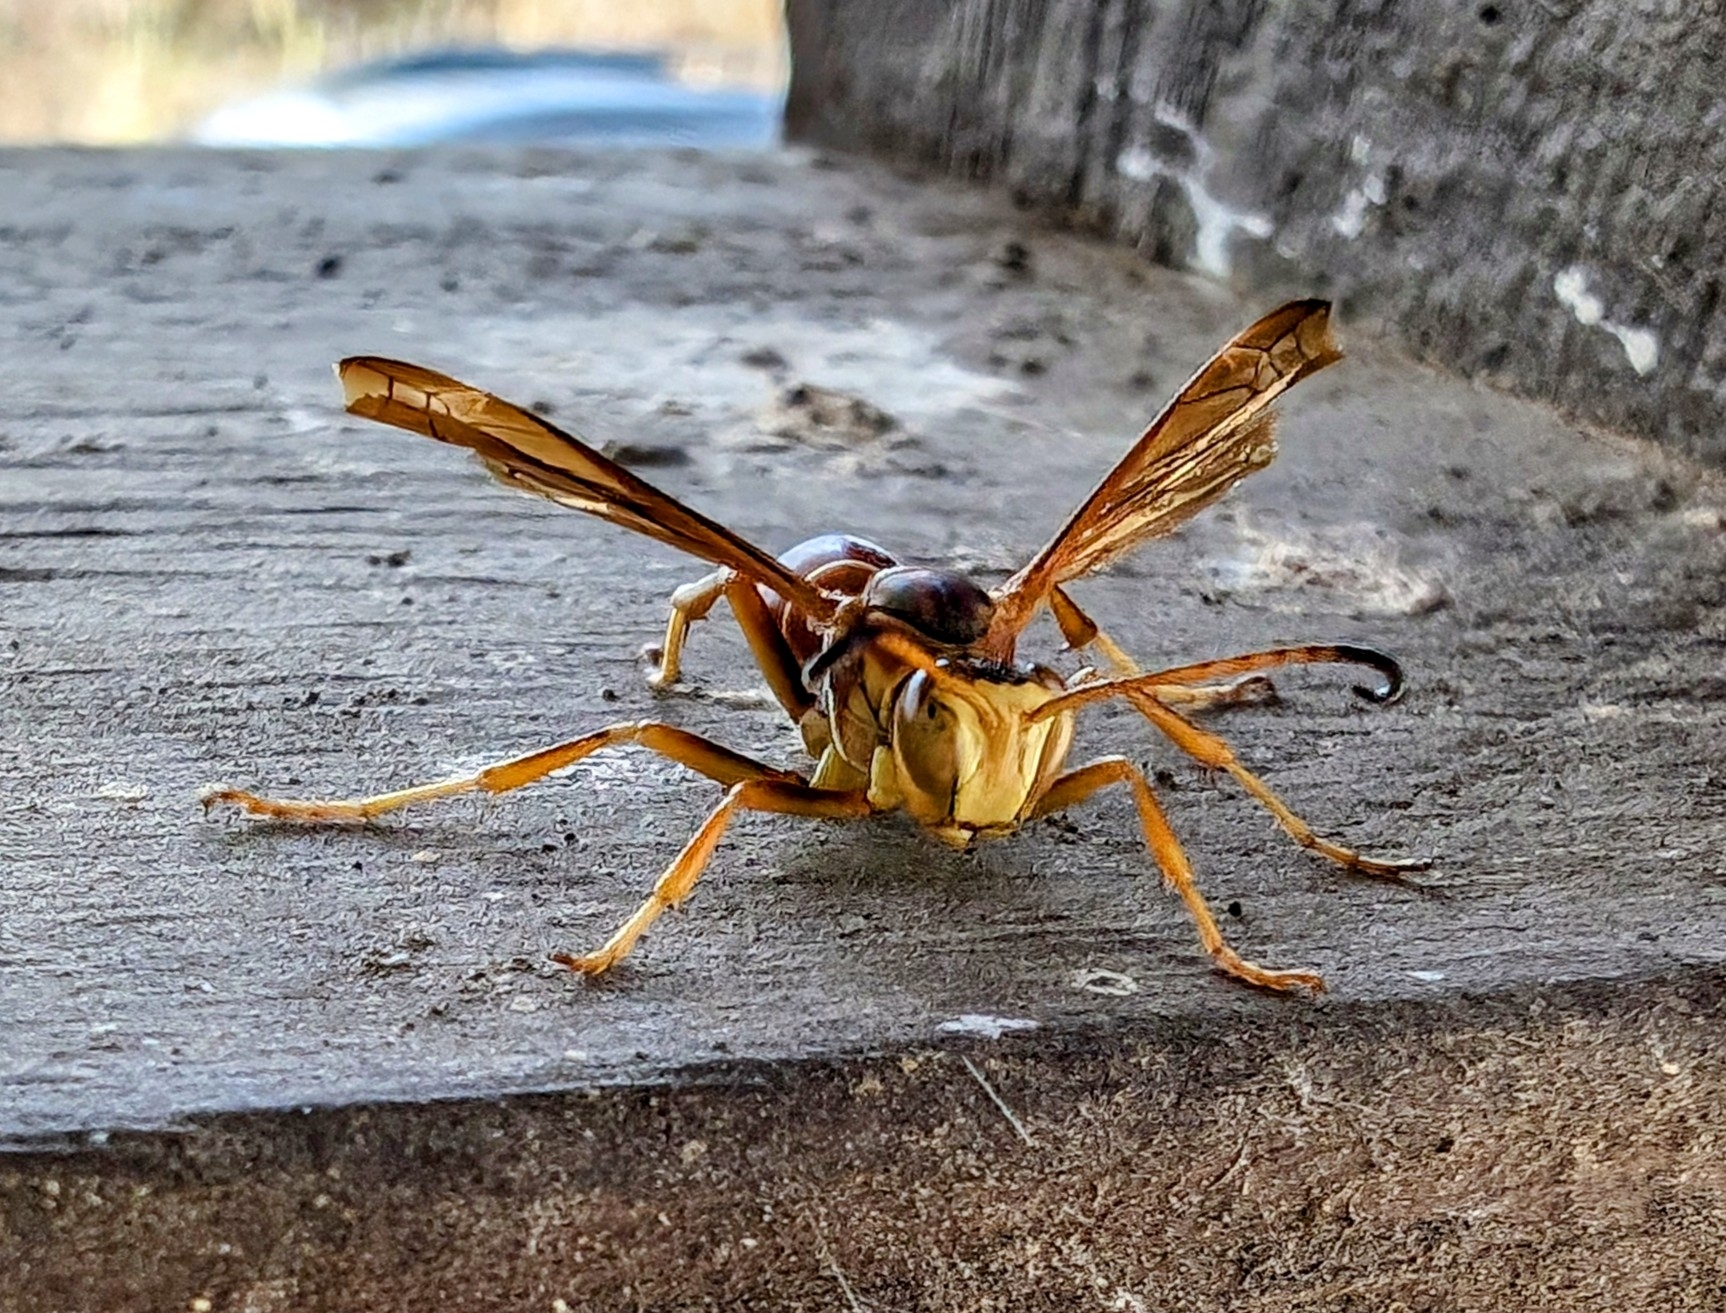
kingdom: Animalia
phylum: Arthropoda
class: Insecta
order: Hymenoptera
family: Eumenidae
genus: Polistes
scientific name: Polistes fuscatus
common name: Dark paper wasp
